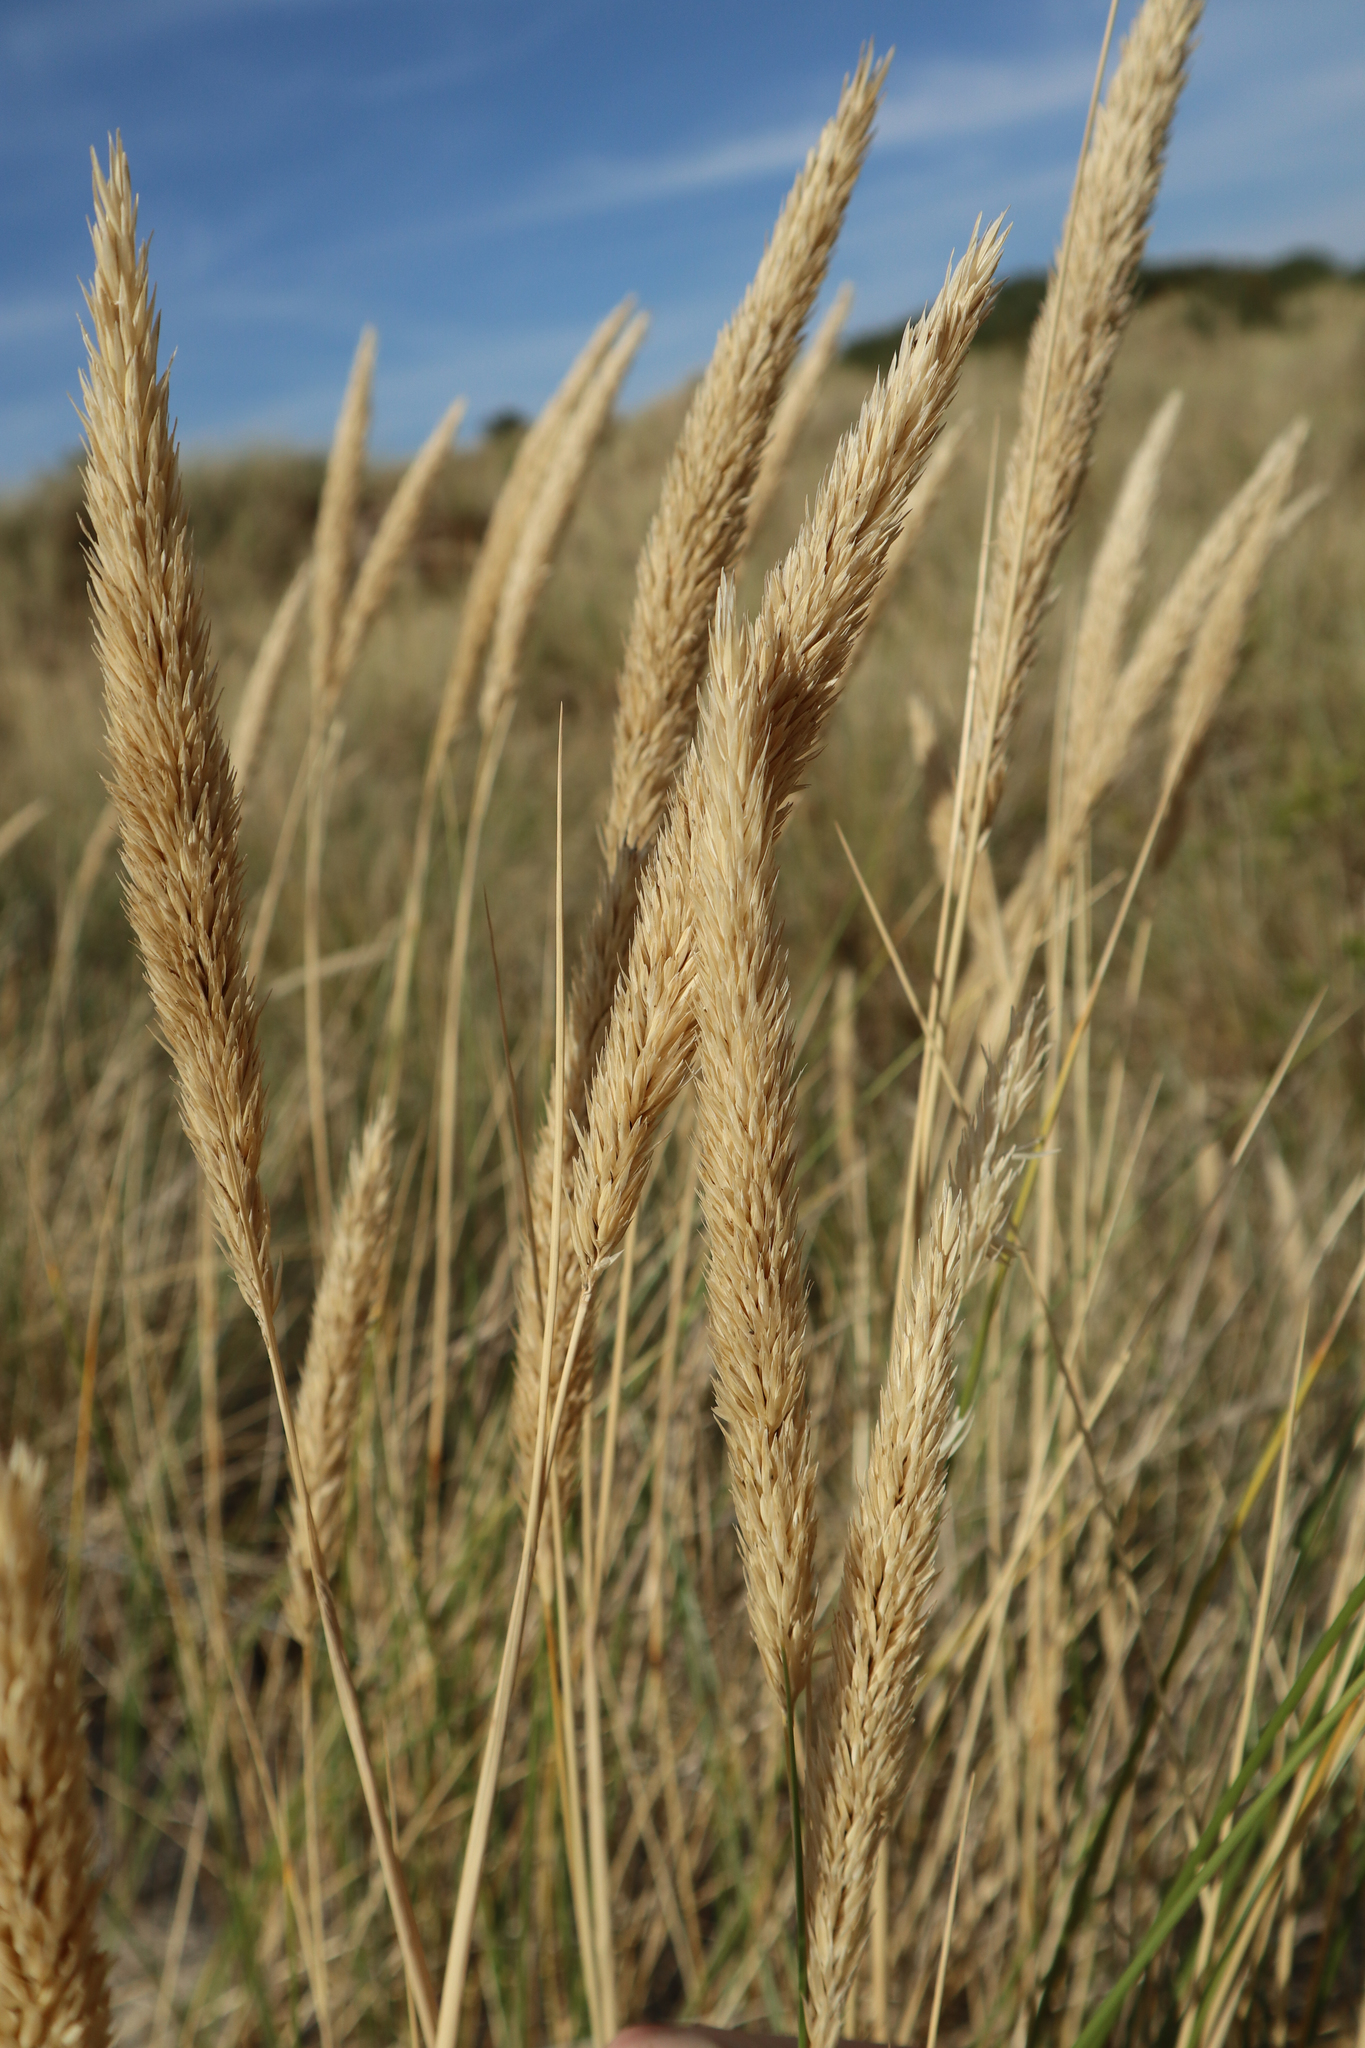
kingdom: Plantae
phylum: Tracheophyta
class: Liliopsida
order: Poales
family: Poaceae
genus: Calamagrostis
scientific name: Calamagrostis arenaria
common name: European beachgrass
